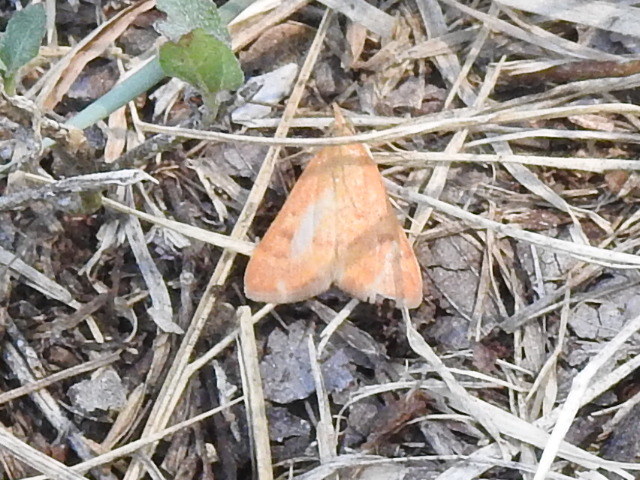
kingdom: Animalia
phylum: Arthropoda
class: Insecta
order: Lepidoptera
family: Crambidae
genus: Achyra
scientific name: Achyra rantalis
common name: Garden webworm
